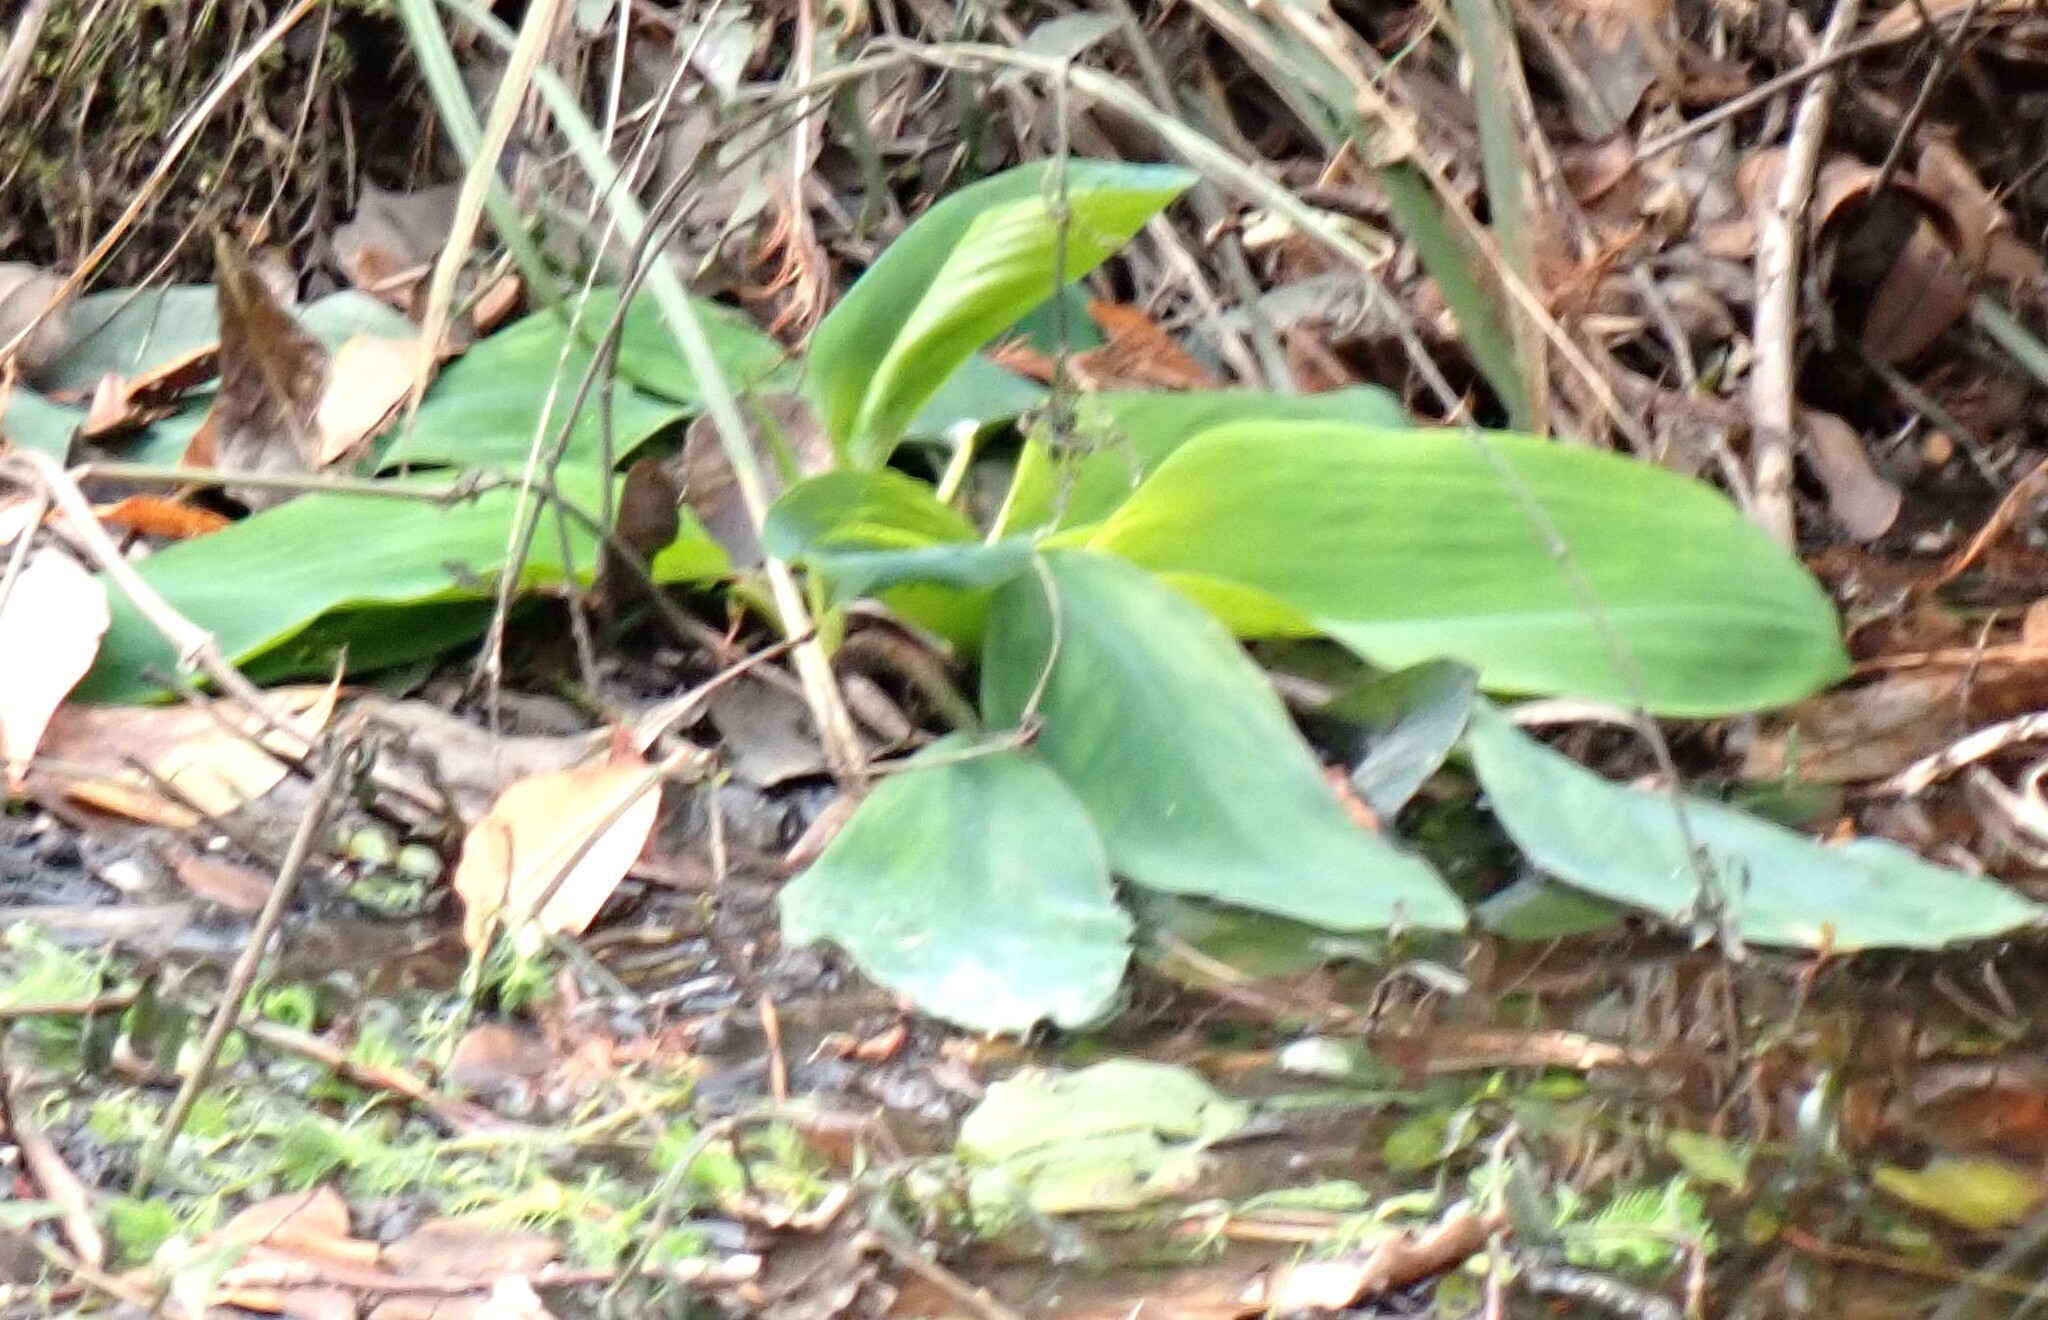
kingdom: Plantae
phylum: Tracheophyta
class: Liliopsida
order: Alismatales
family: Araceae
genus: Orontium
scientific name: Orontium aquaticum
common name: Golden-club
